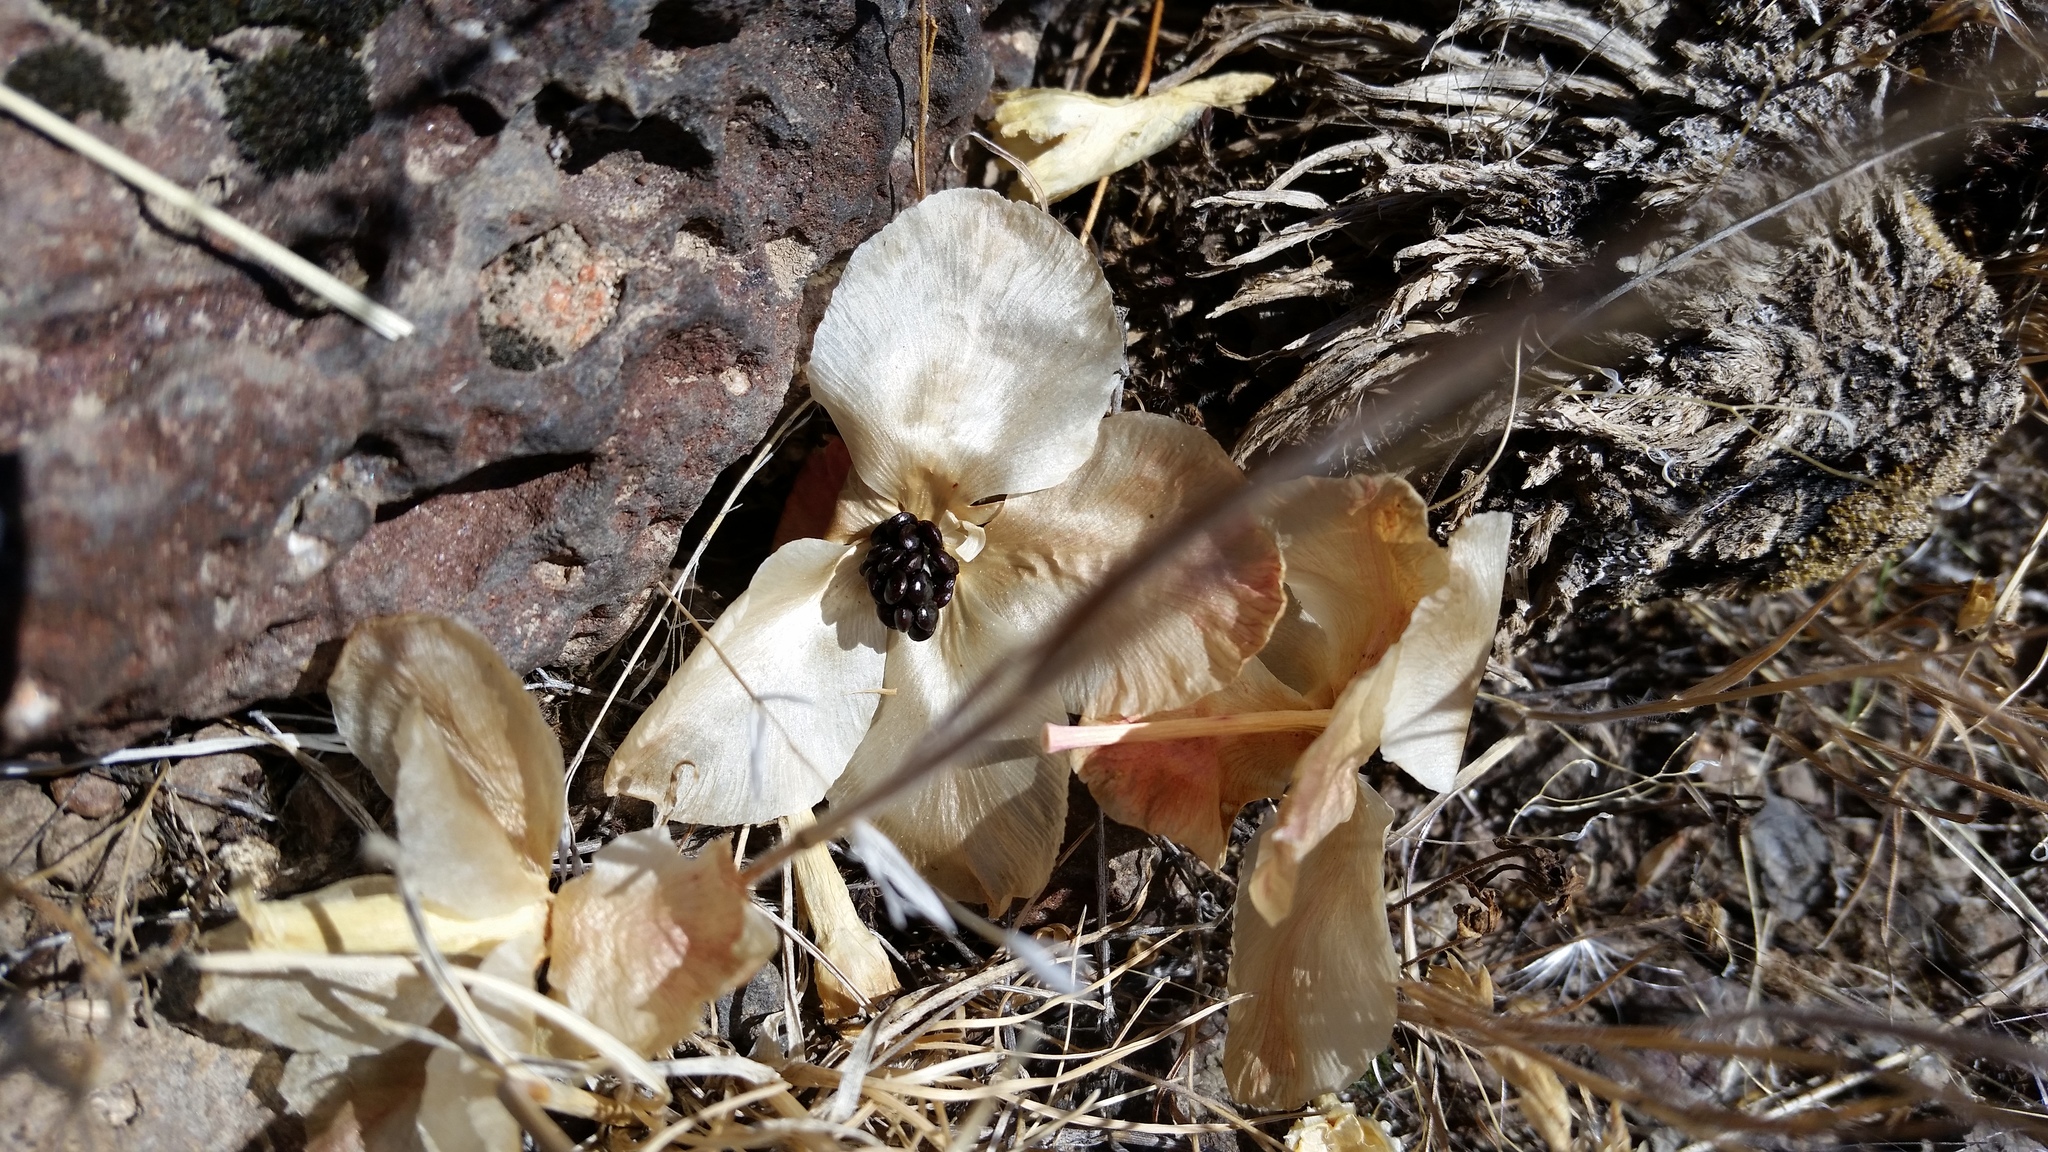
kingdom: Plantae
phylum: Tracheophyta
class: Magnoliopsida
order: Caryophyllales
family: Montiaceae
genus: Lewisia
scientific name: Lewisia rediviva
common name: Bitter-root
